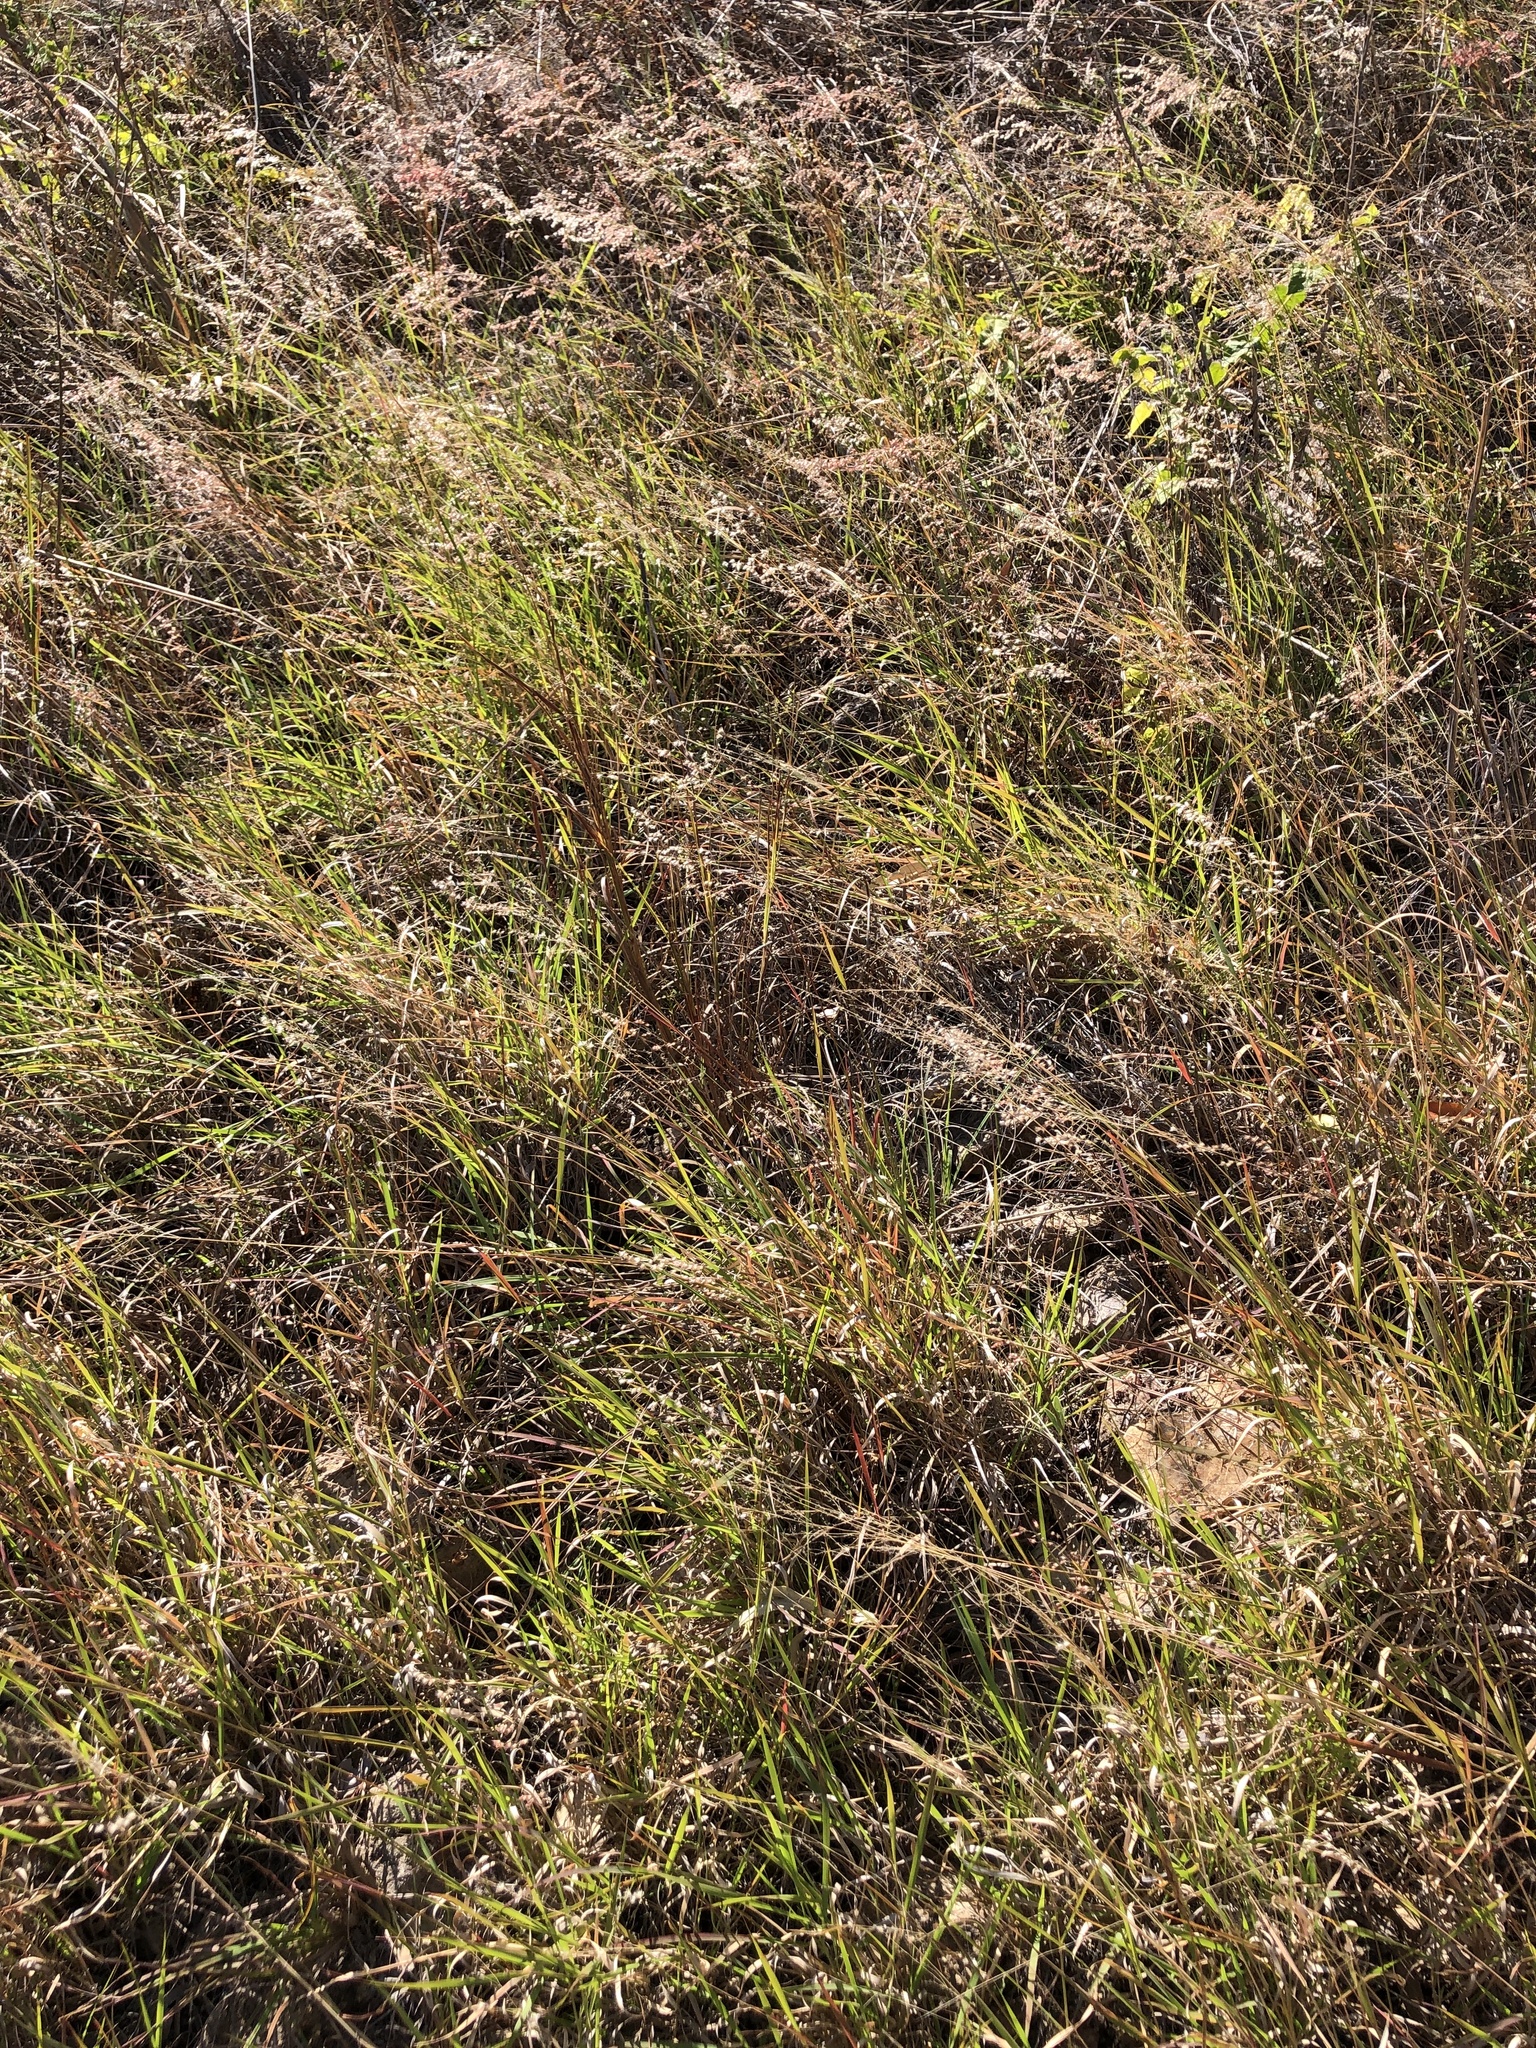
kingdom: Plantae
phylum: Tracheophyta
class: Liliopsida
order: Poales
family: Poaceae
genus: Melinis
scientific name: Melinis repens
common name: Rose natal grass
